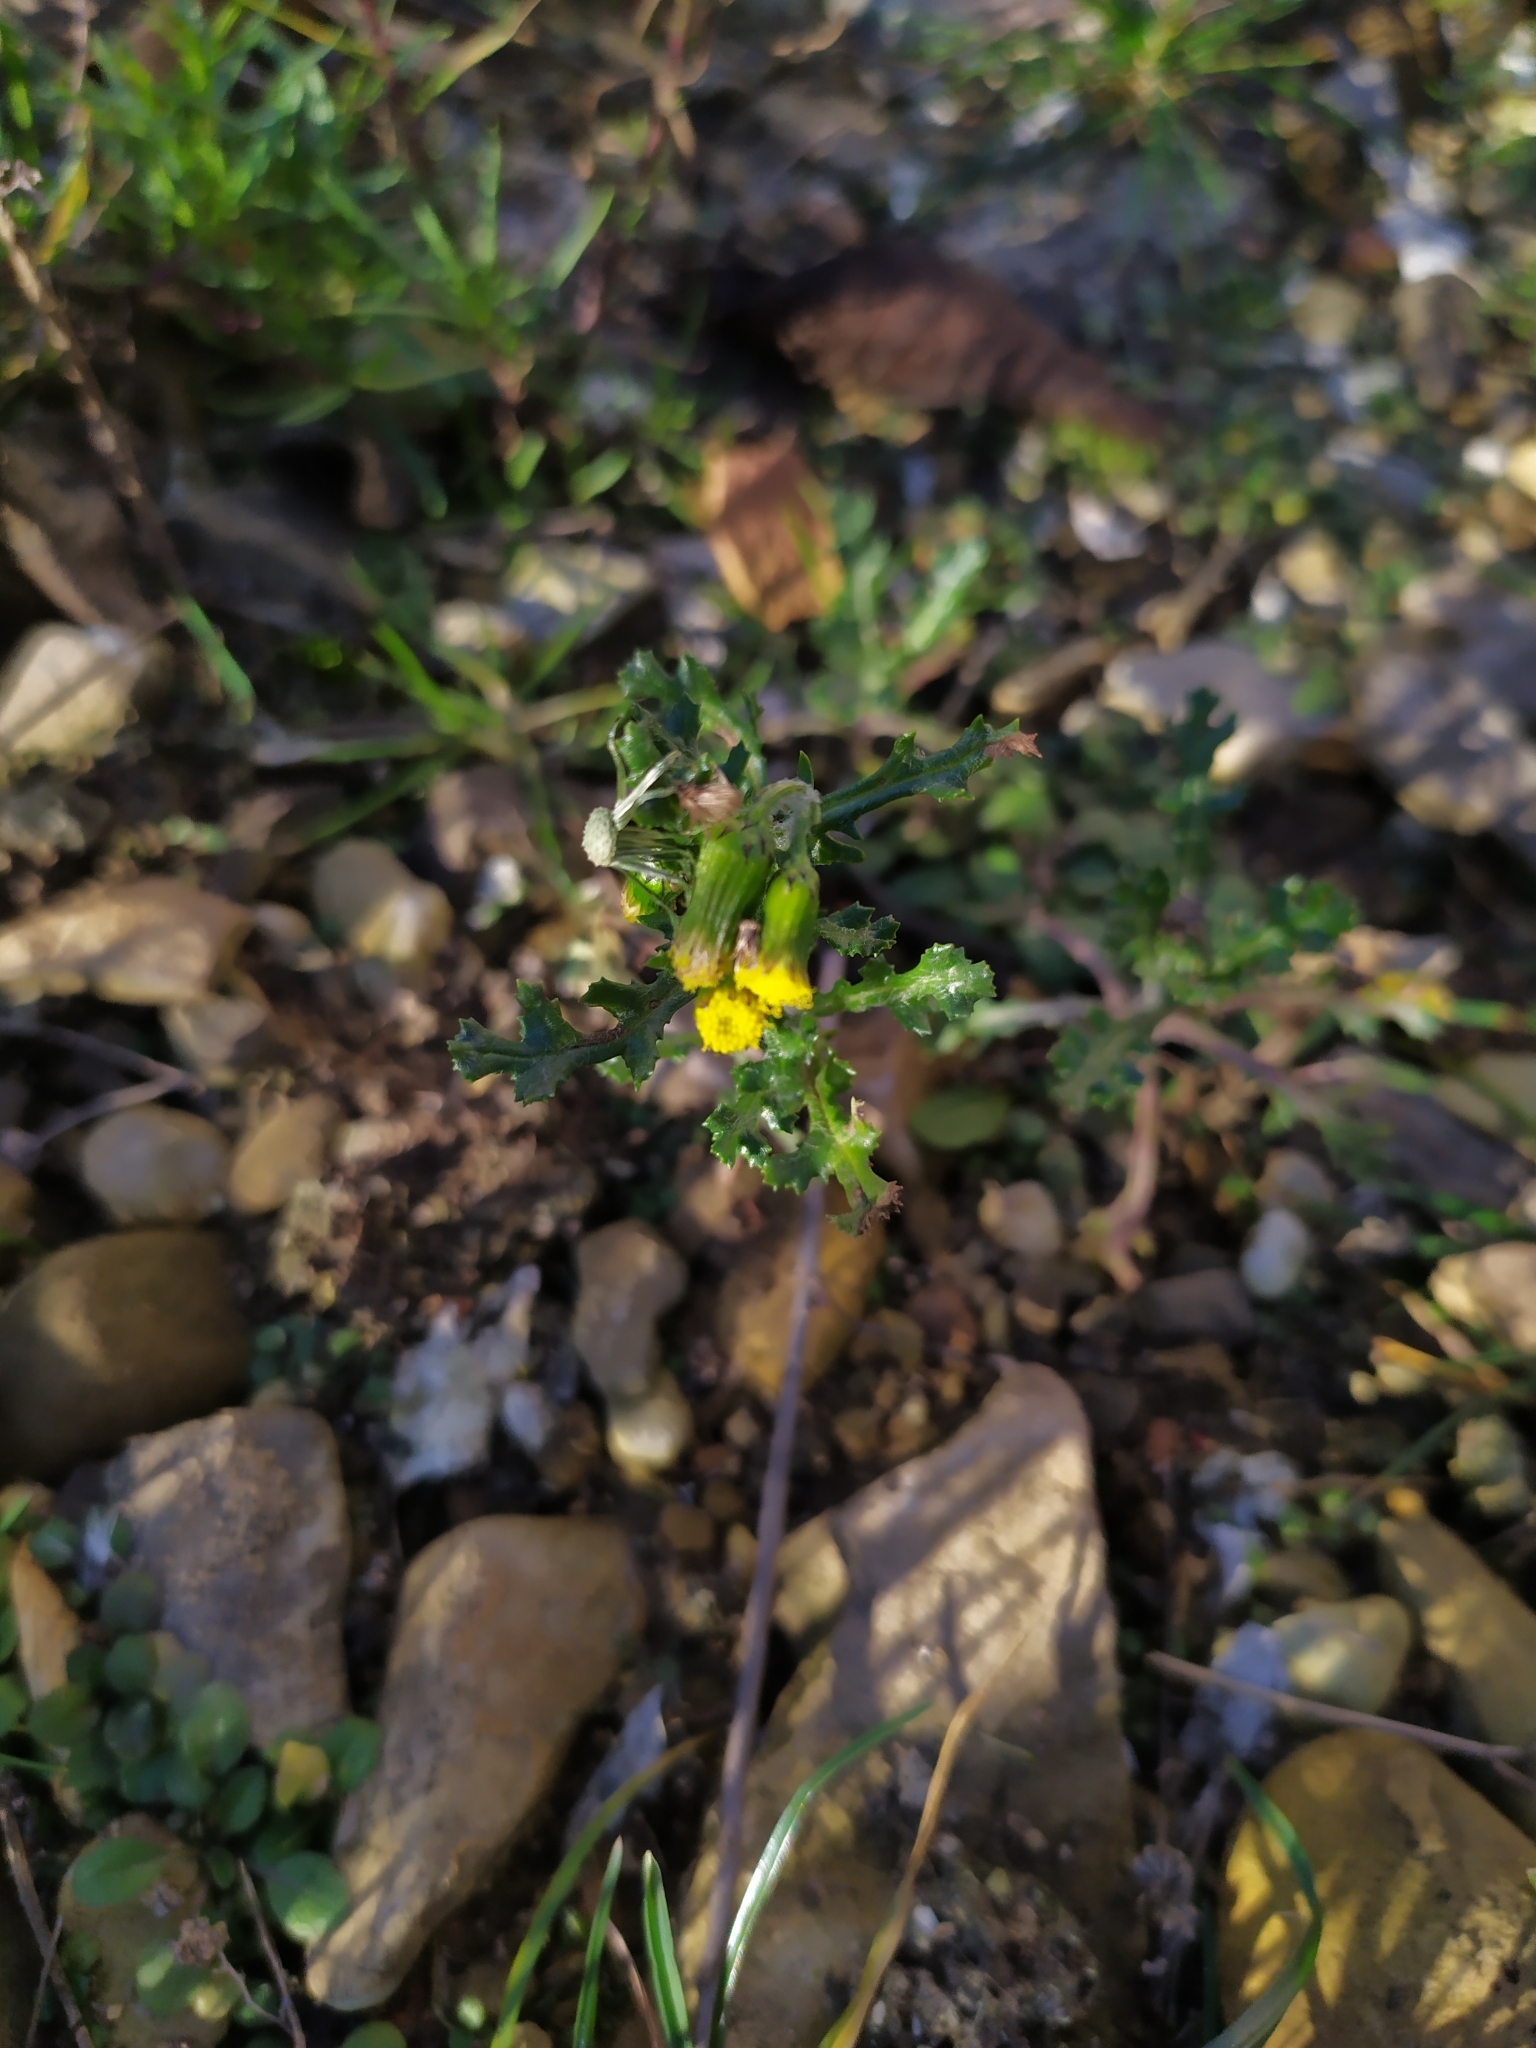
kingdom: Plantae
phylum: Tracheophyta
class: Magnoliopsida
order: Asterales
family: Asteraceae
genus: Senecio
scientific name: Senecio vulgaris
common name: Old-man-in-the-spring
